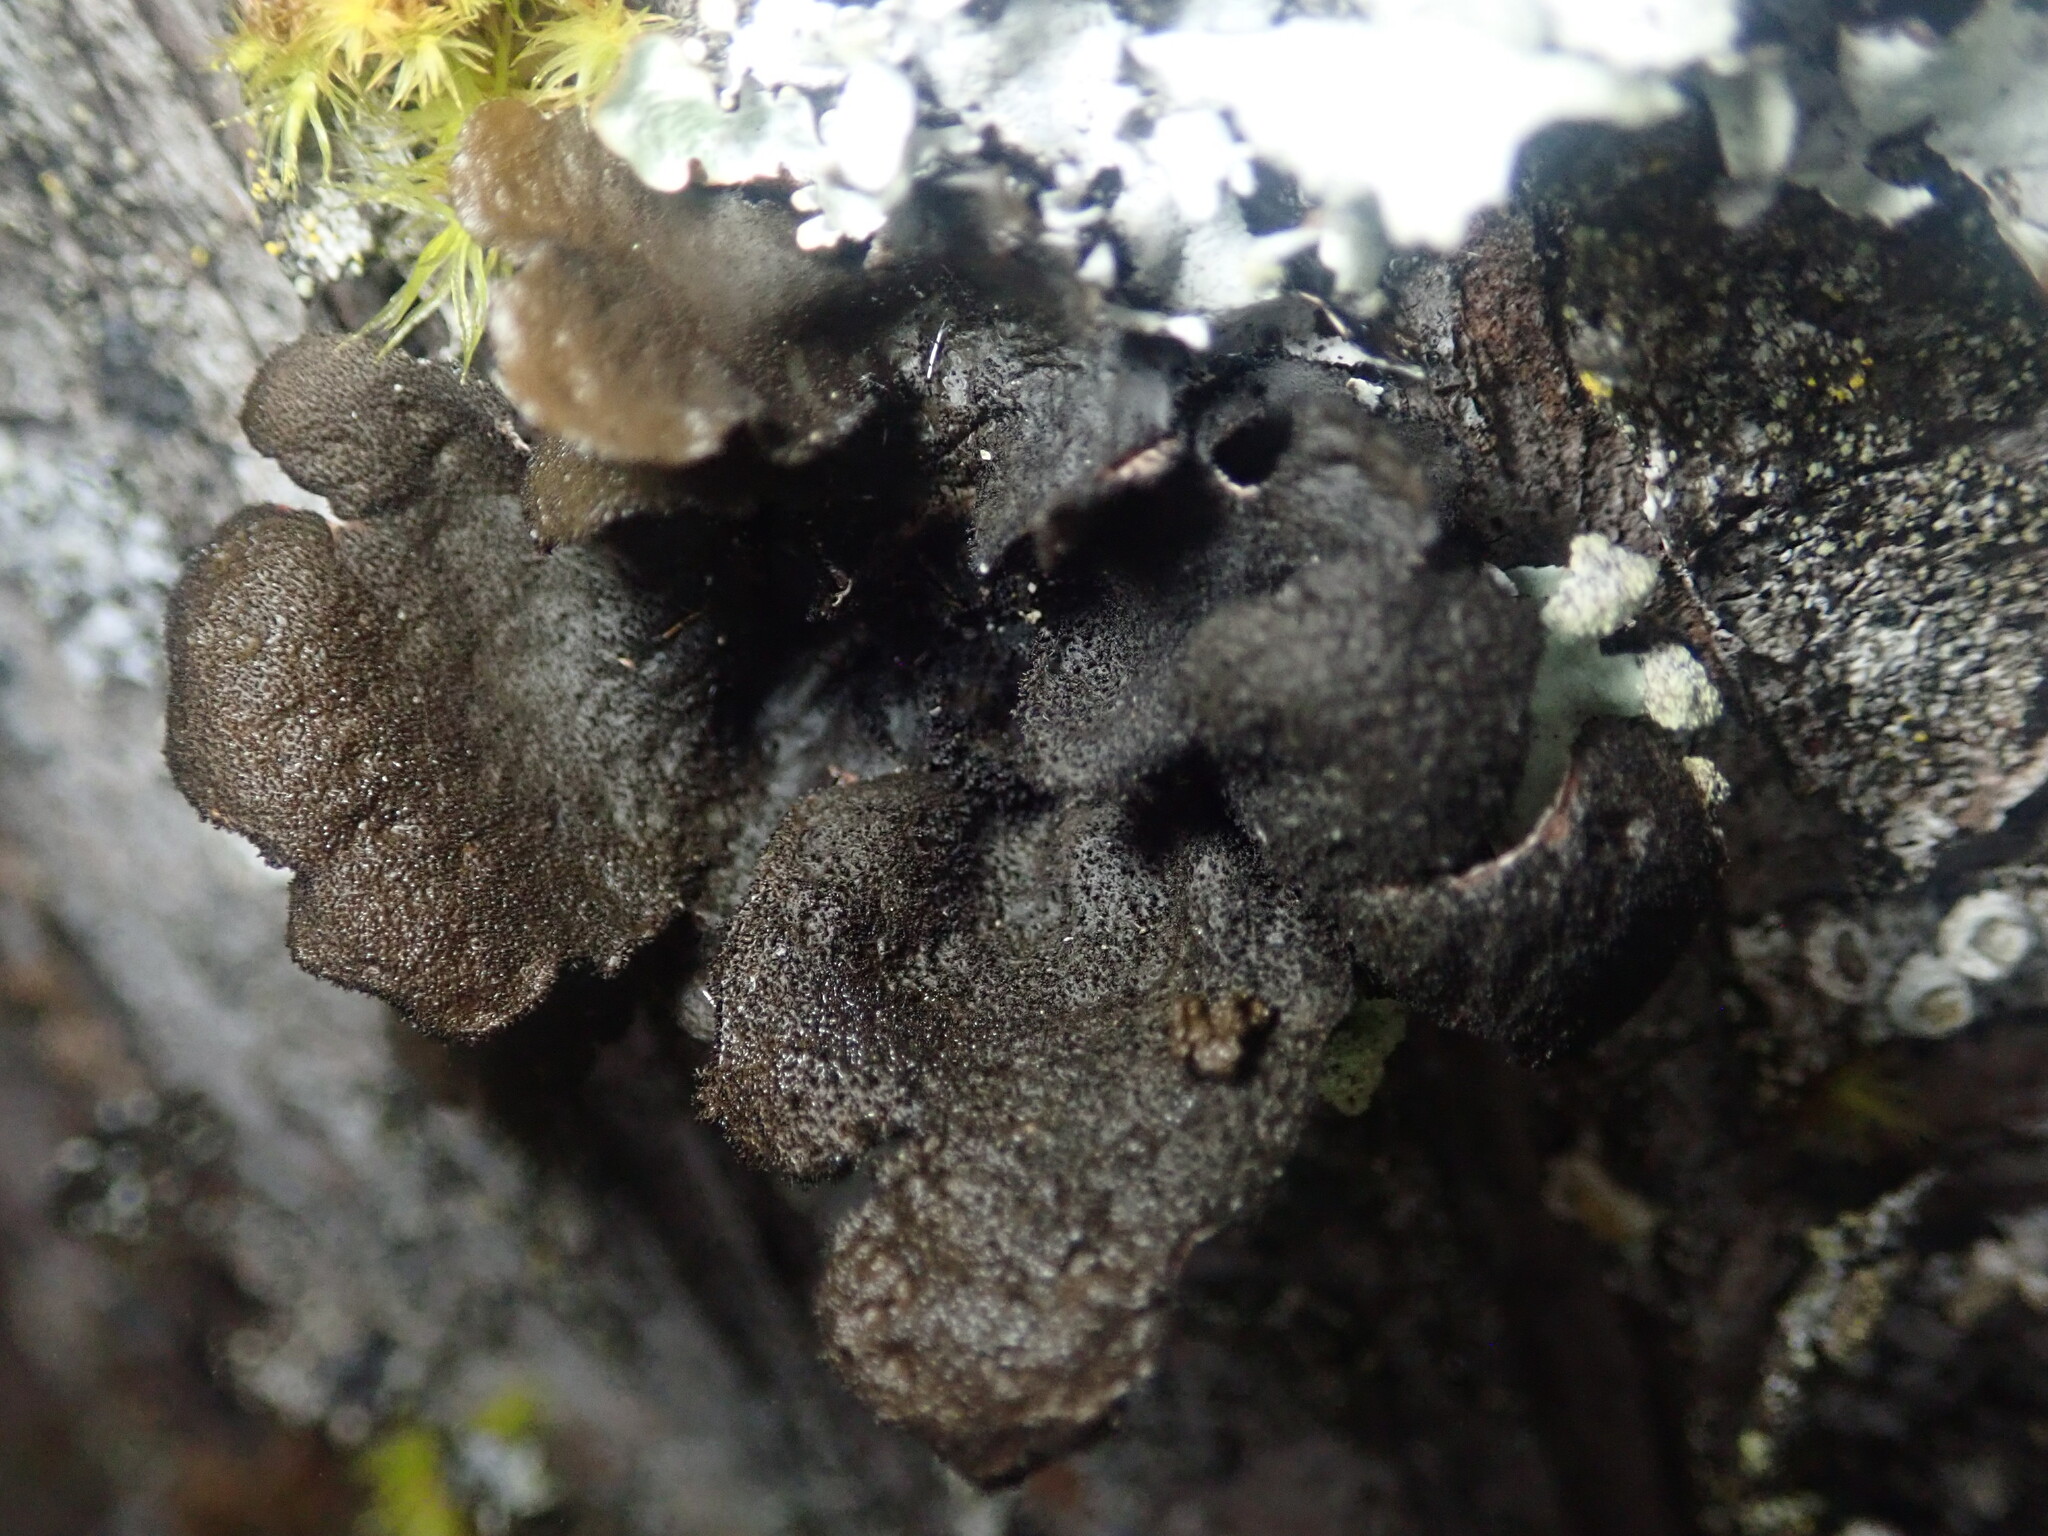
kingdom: Fungi
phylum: Ascomycota
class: Lecanoromycetes
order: Peltigerales
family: Lobariaceae
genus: Sticta
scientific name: Sticta
